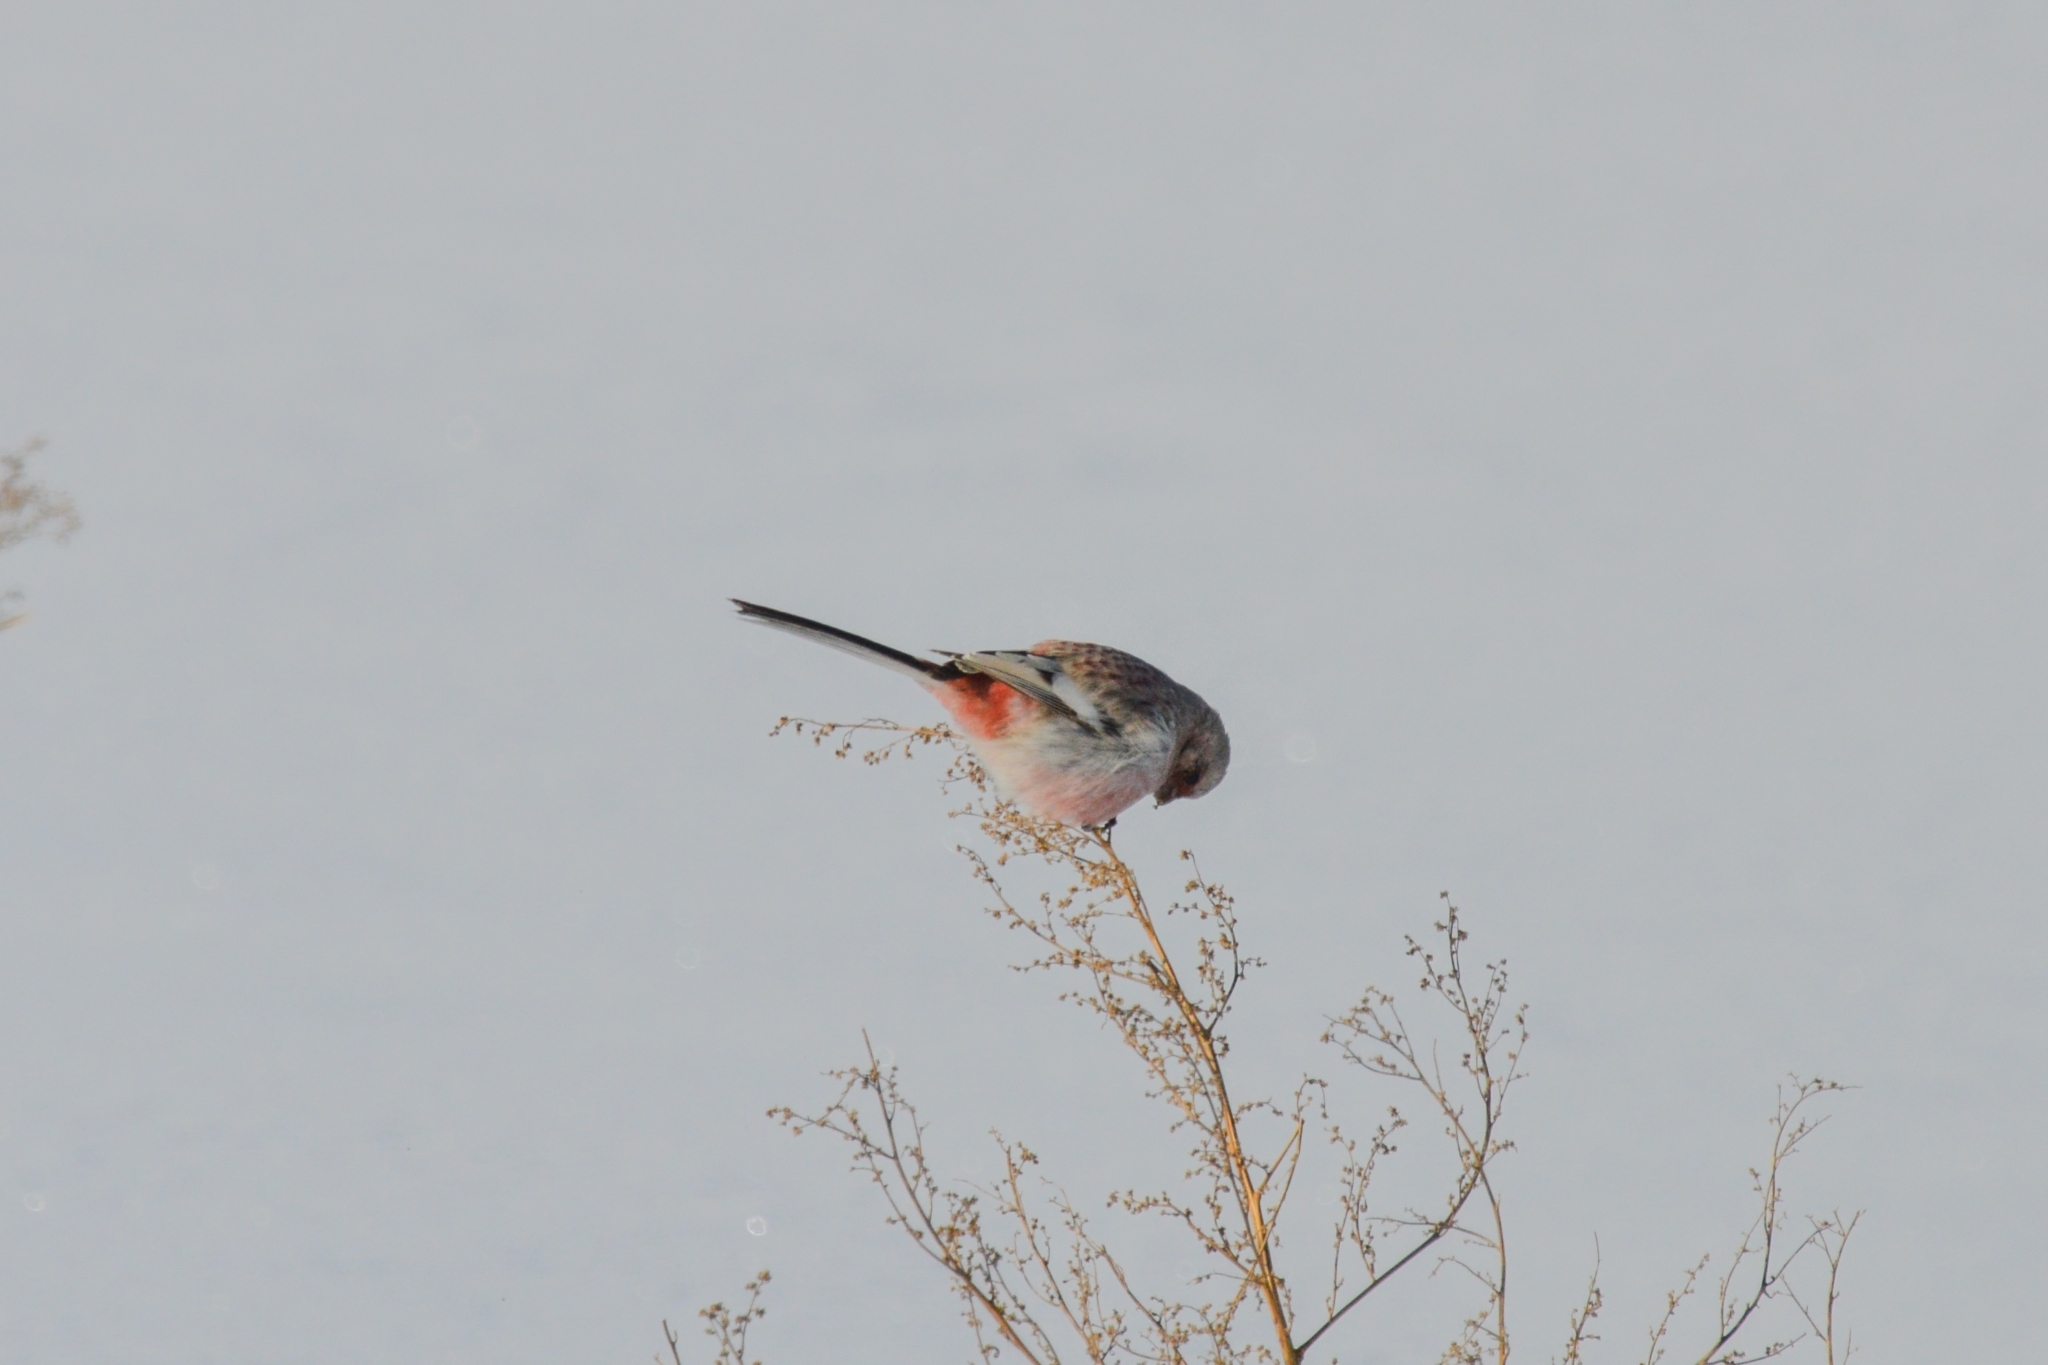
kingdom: Animalia
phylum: Chordata
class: Aves
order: Passeriformes
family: Fringillidae
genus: Carpodacus
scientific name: Carpodacus sibiricus
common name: Long-tailed rosefinch
